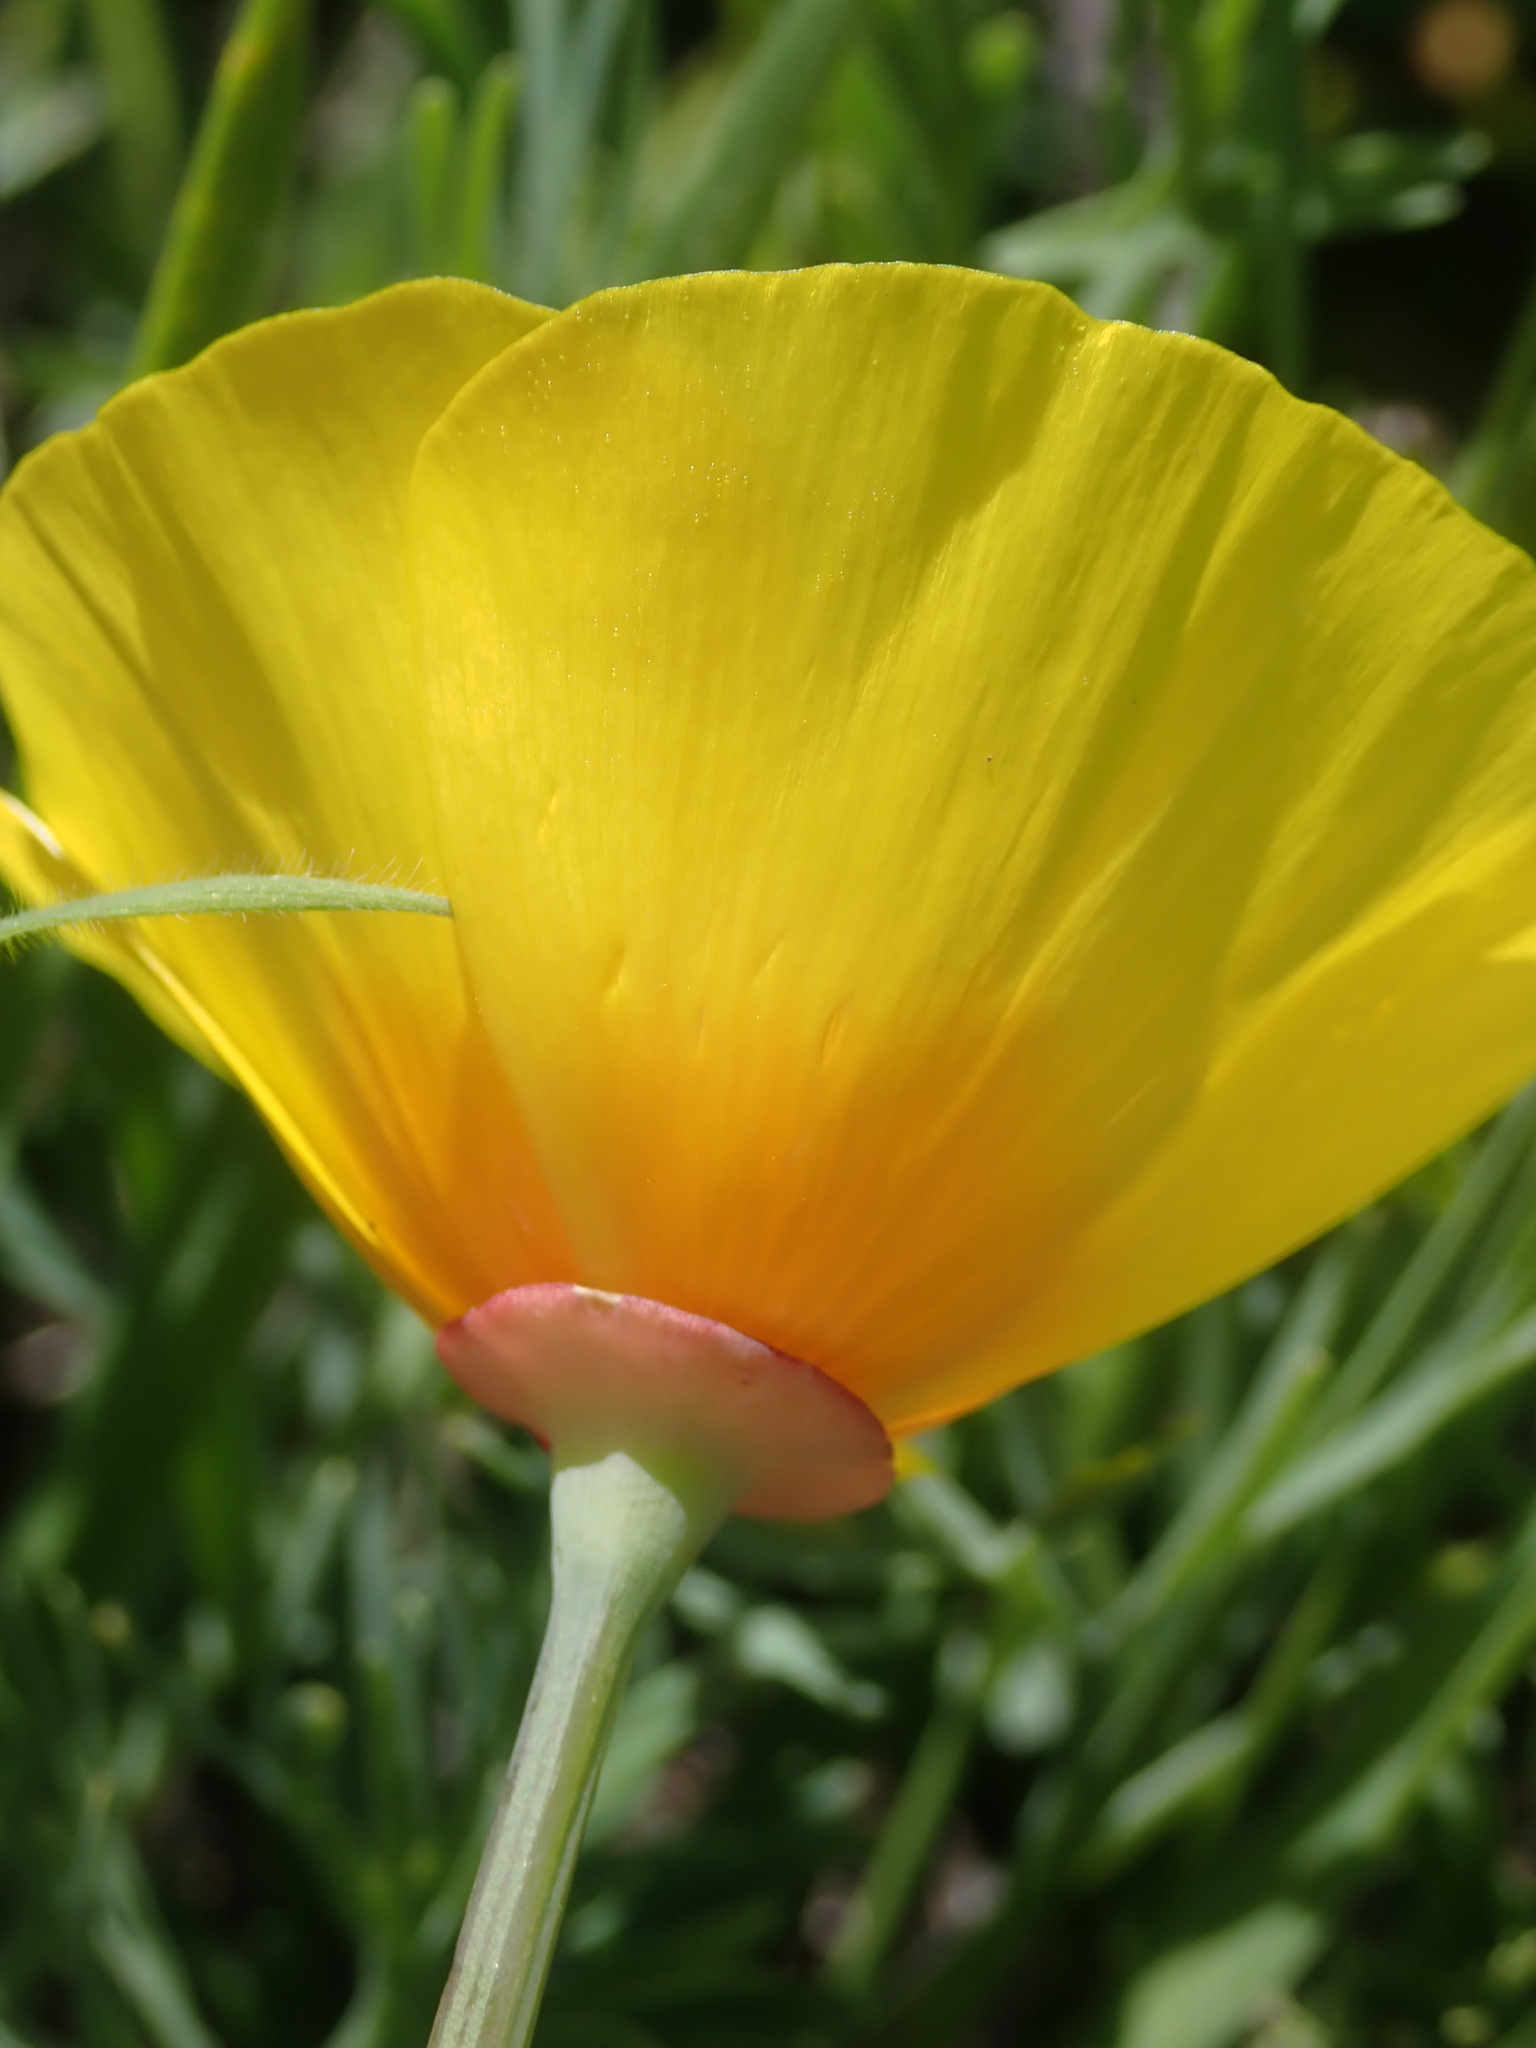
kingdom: Plantae
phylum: Tracheophyta
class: Magnoliopsida
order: Ranunculales
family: Papaveraceae
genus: Eschscholzia
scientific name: Eschscholzia californica
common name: California poppy
